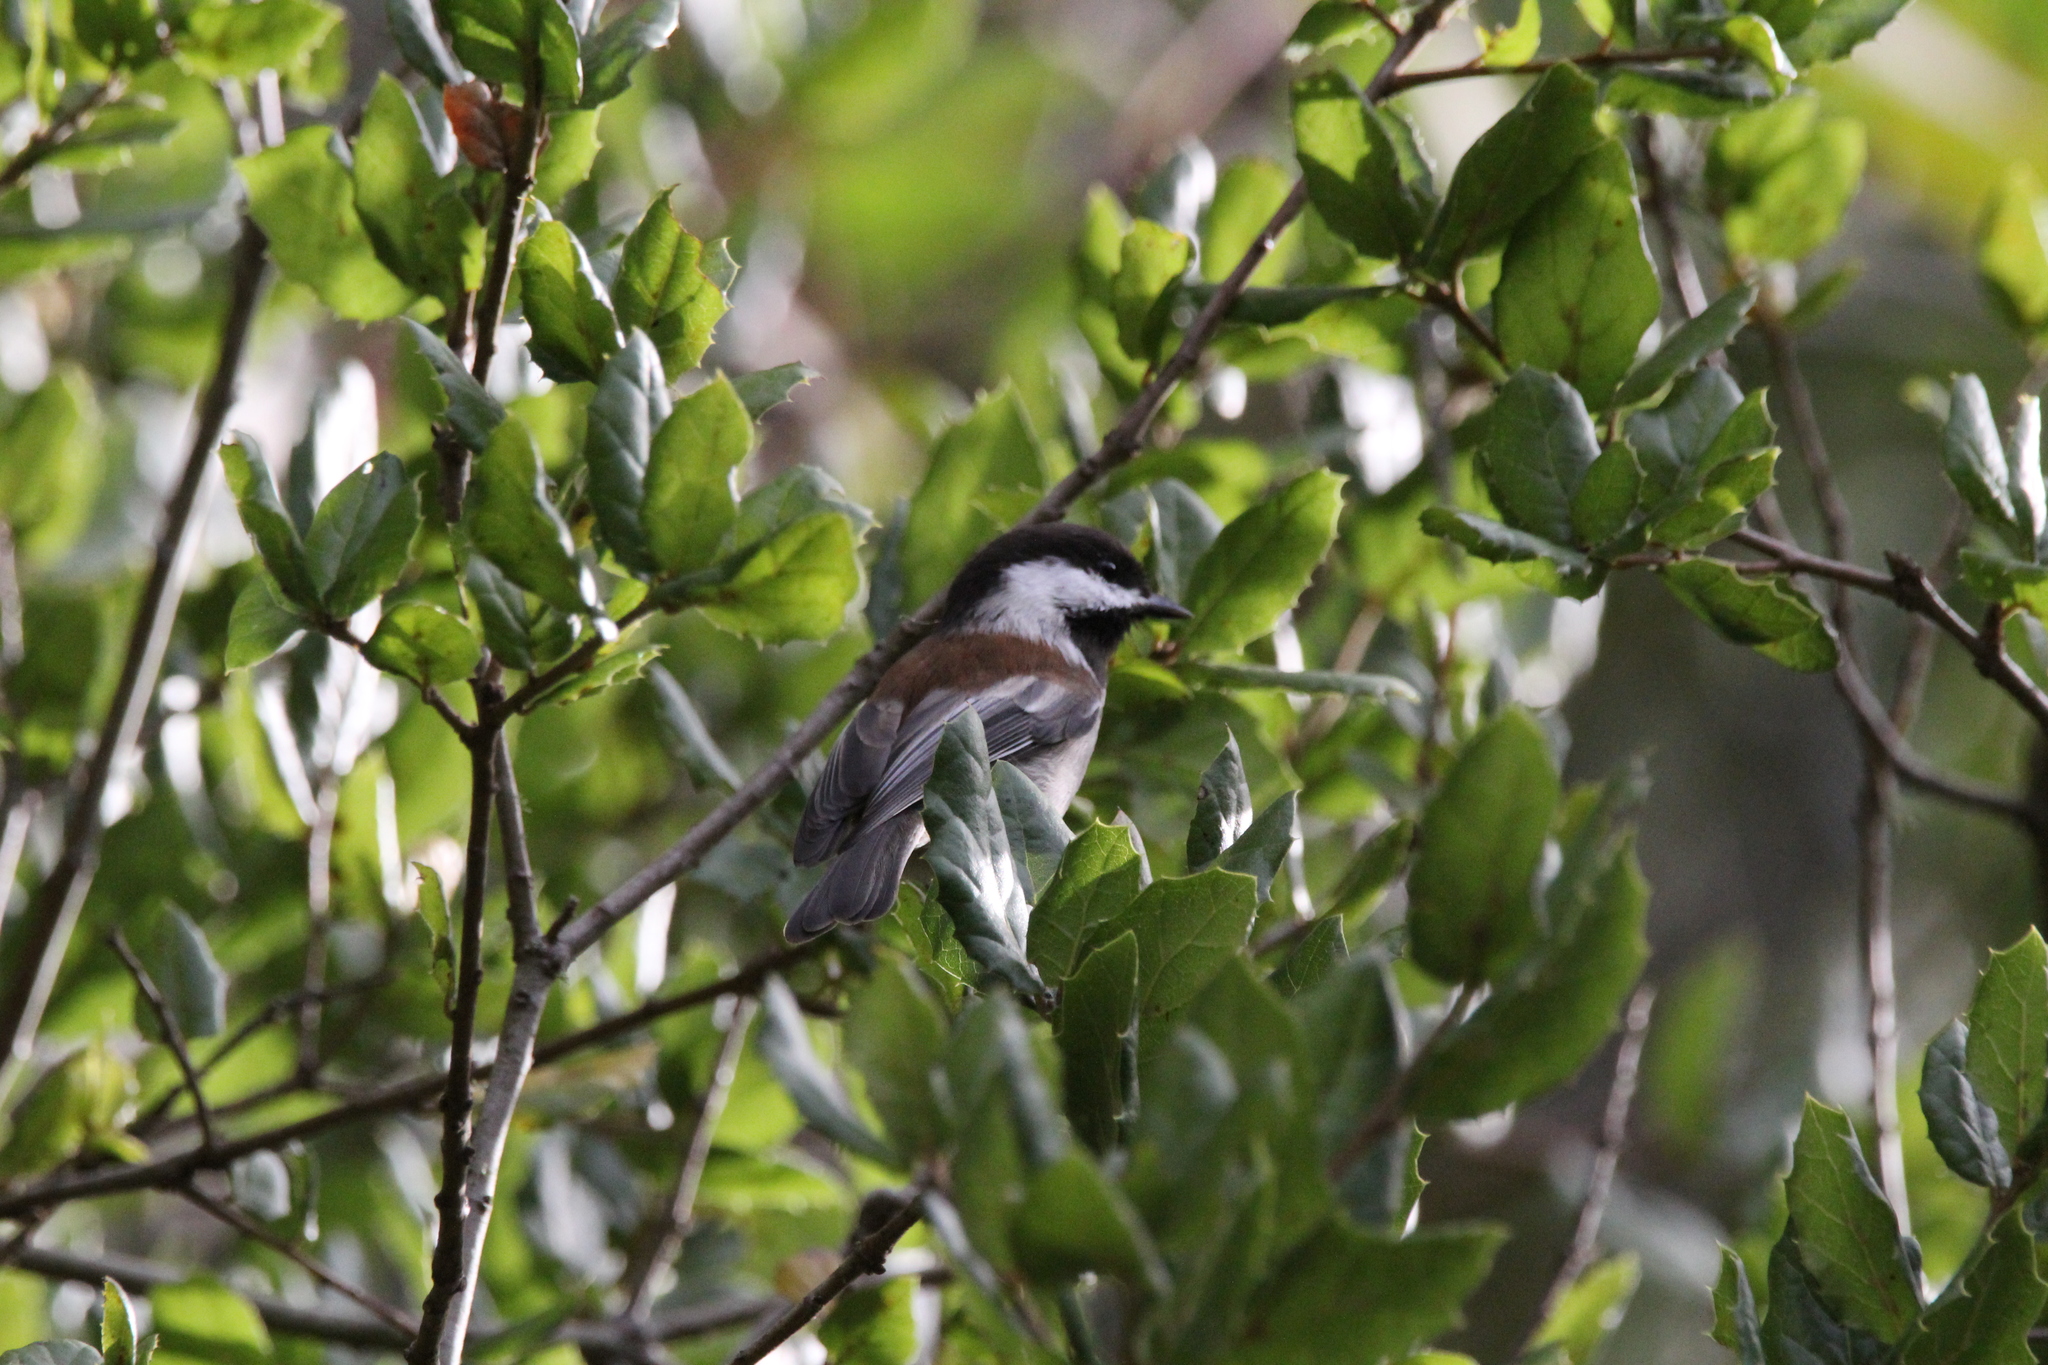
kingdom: Animalia
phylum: Chordata
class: Aves
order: Passeriformes
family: Paridae
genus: Poecile
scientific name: Poecile rufescens
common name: Chestnut-backed chickadee
